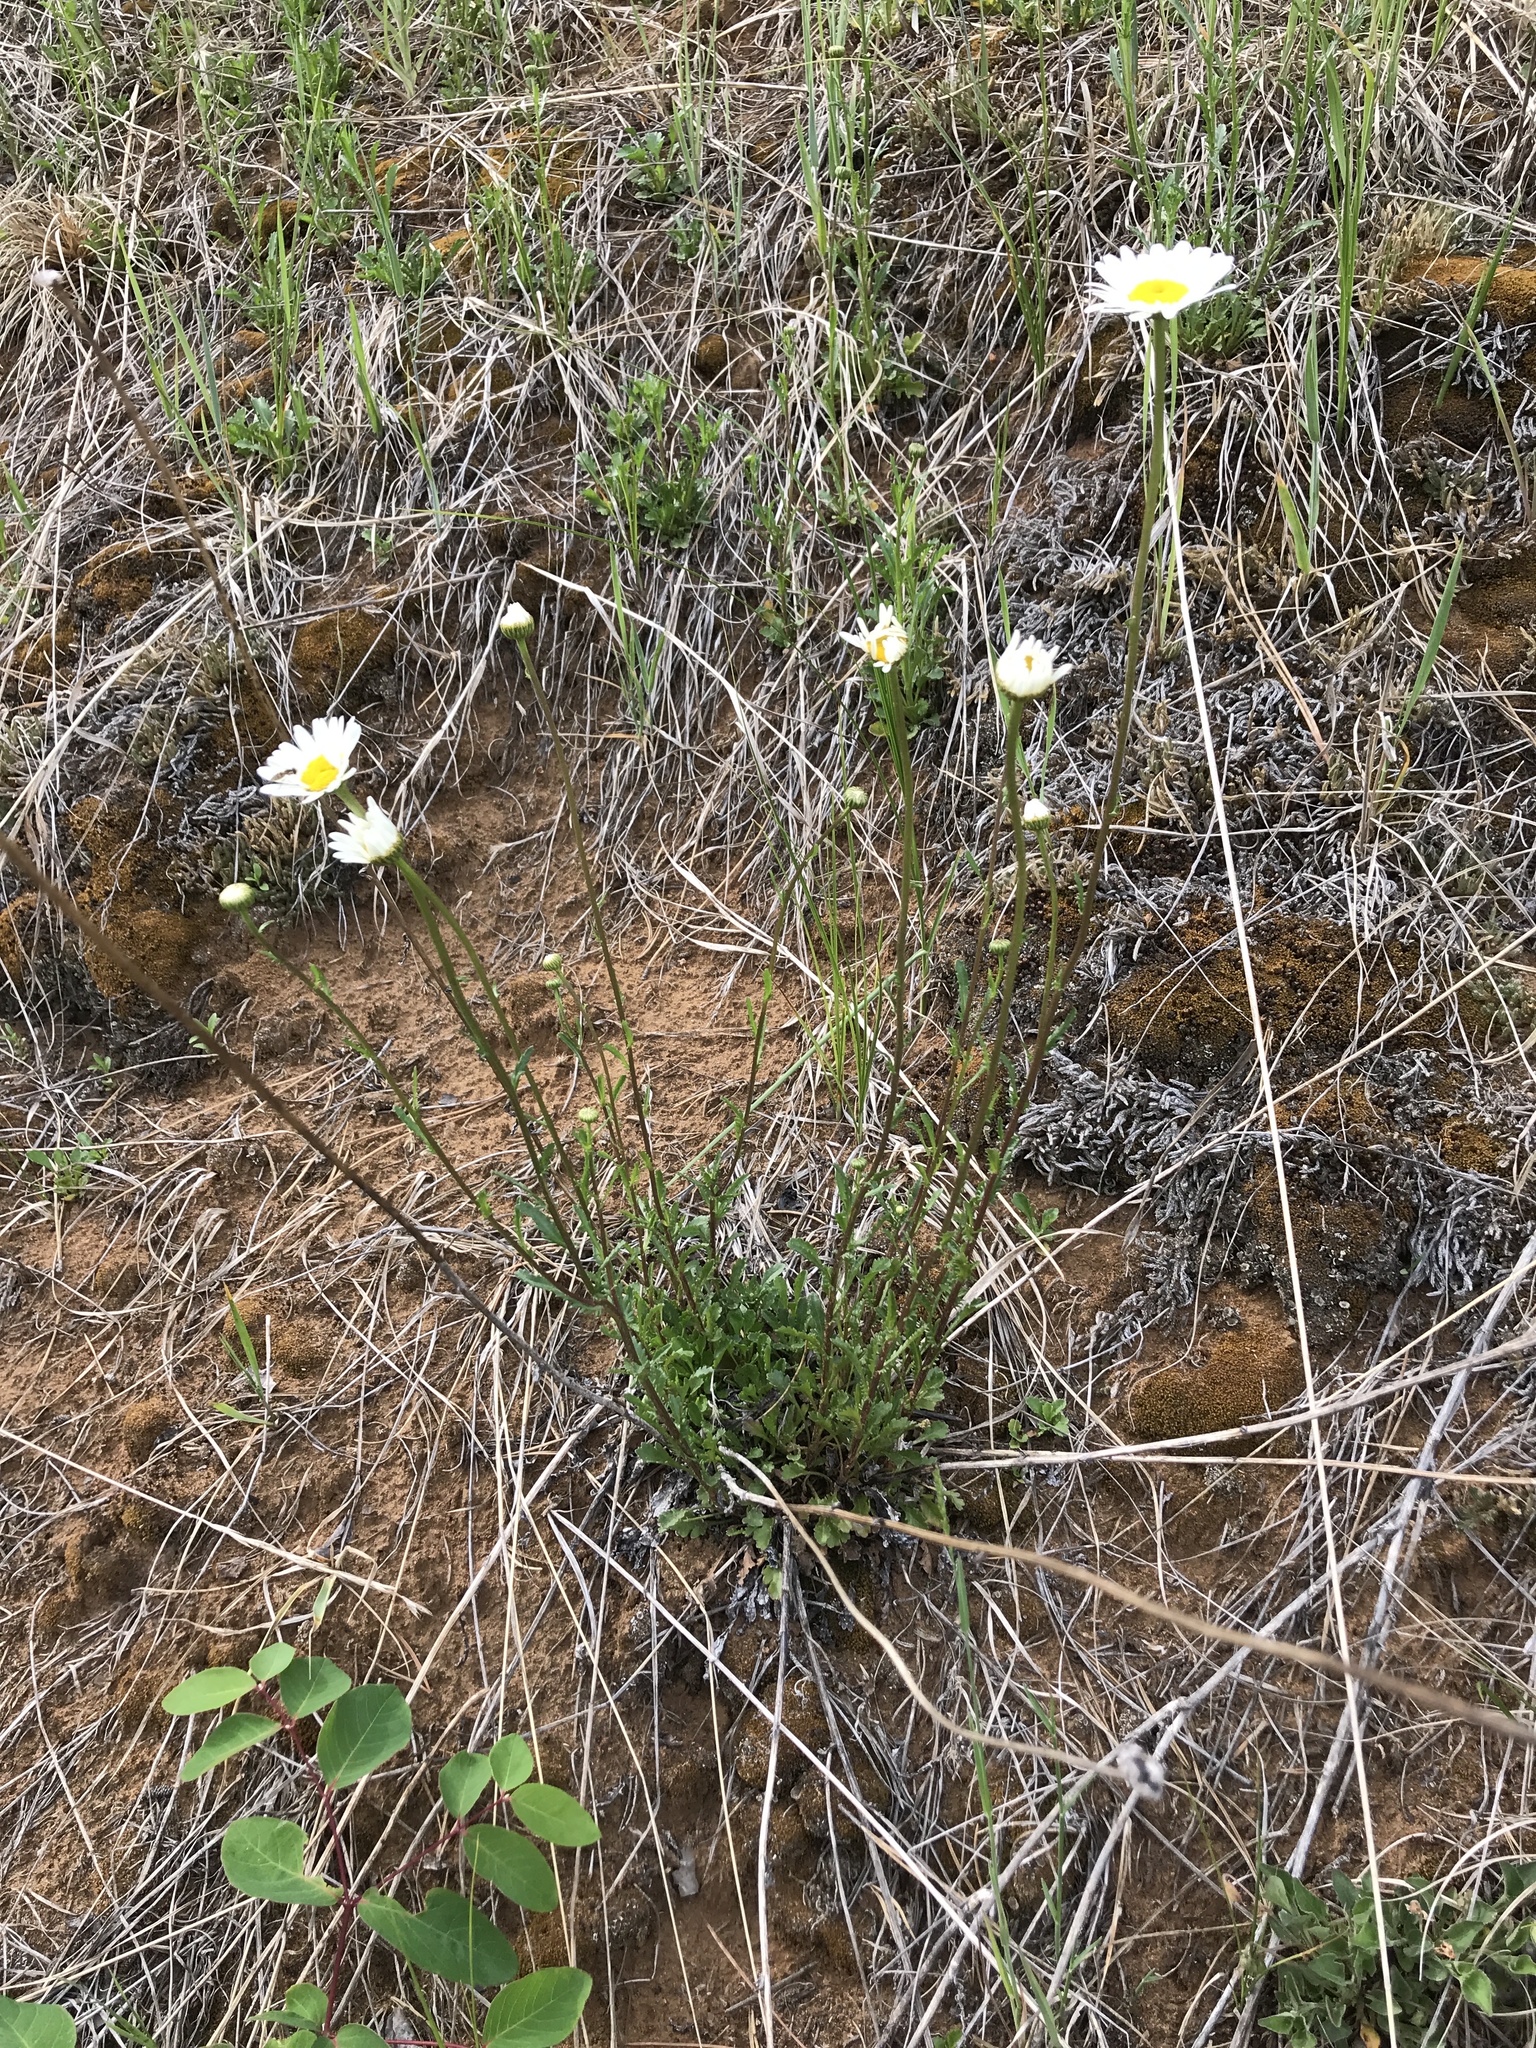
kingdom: Plantae
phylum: Tracheophyta
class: Magnoliopsida
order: Asterales
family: Asteraceae
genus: Leucanthemum
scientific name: Leucanthemum vulgare
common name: Oxeye daisy
